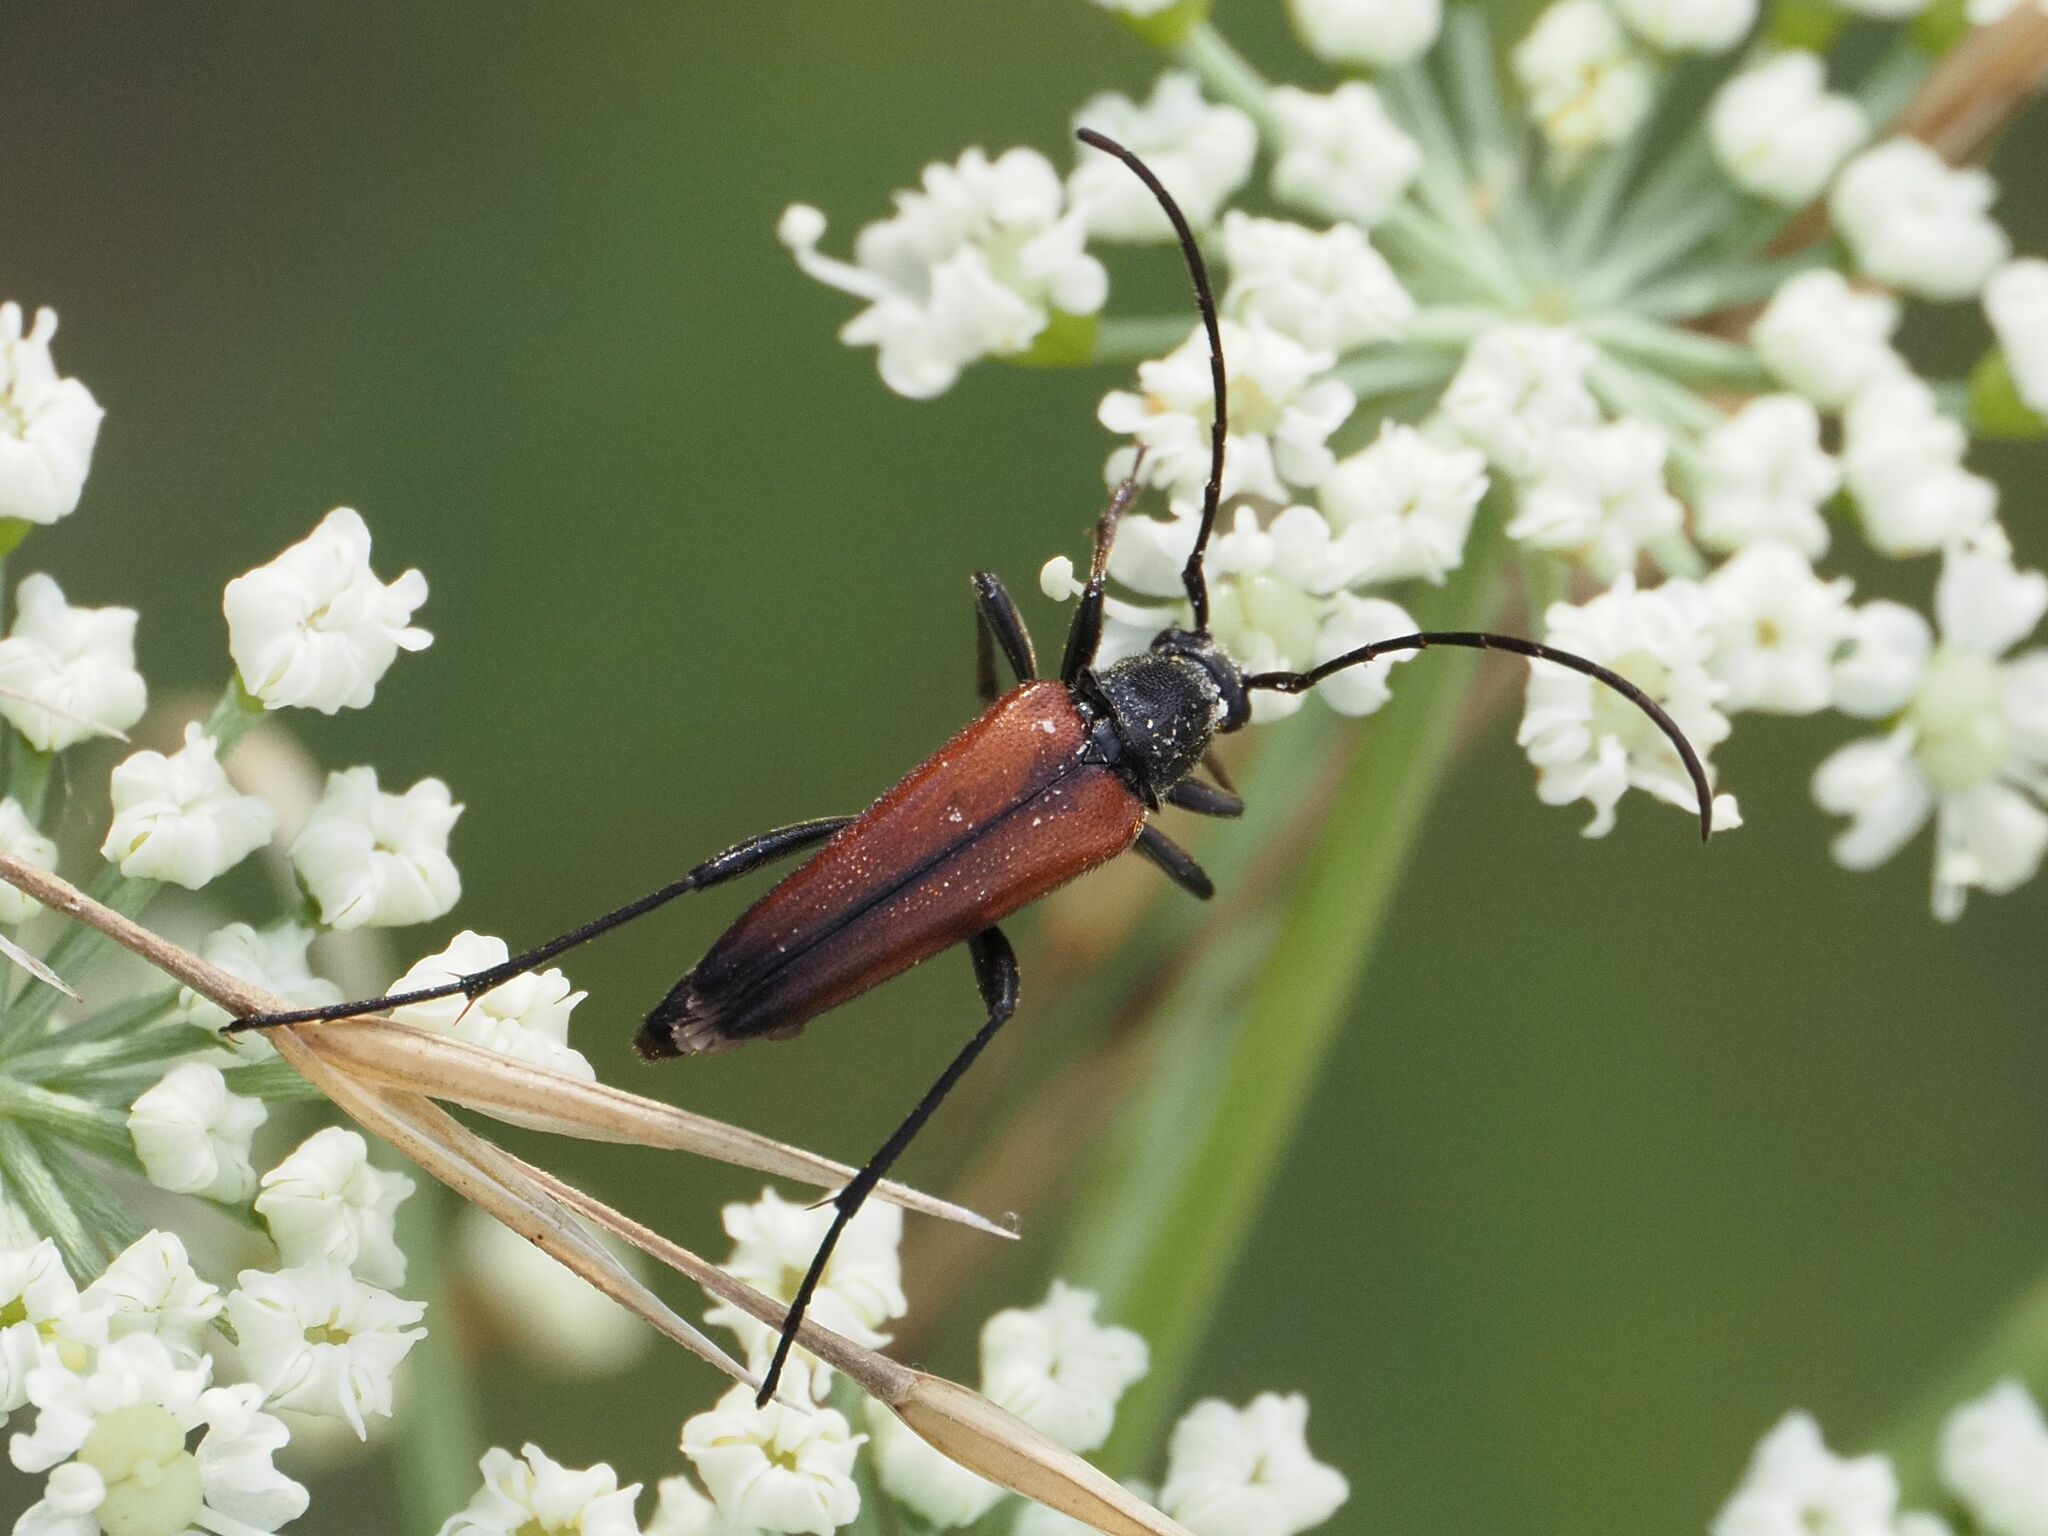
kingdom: Animalia
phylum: Arthropoda
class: Insecta
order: Coleoptera
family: Cerambycidae
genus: Stenurella
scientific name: Stenurella melanura
